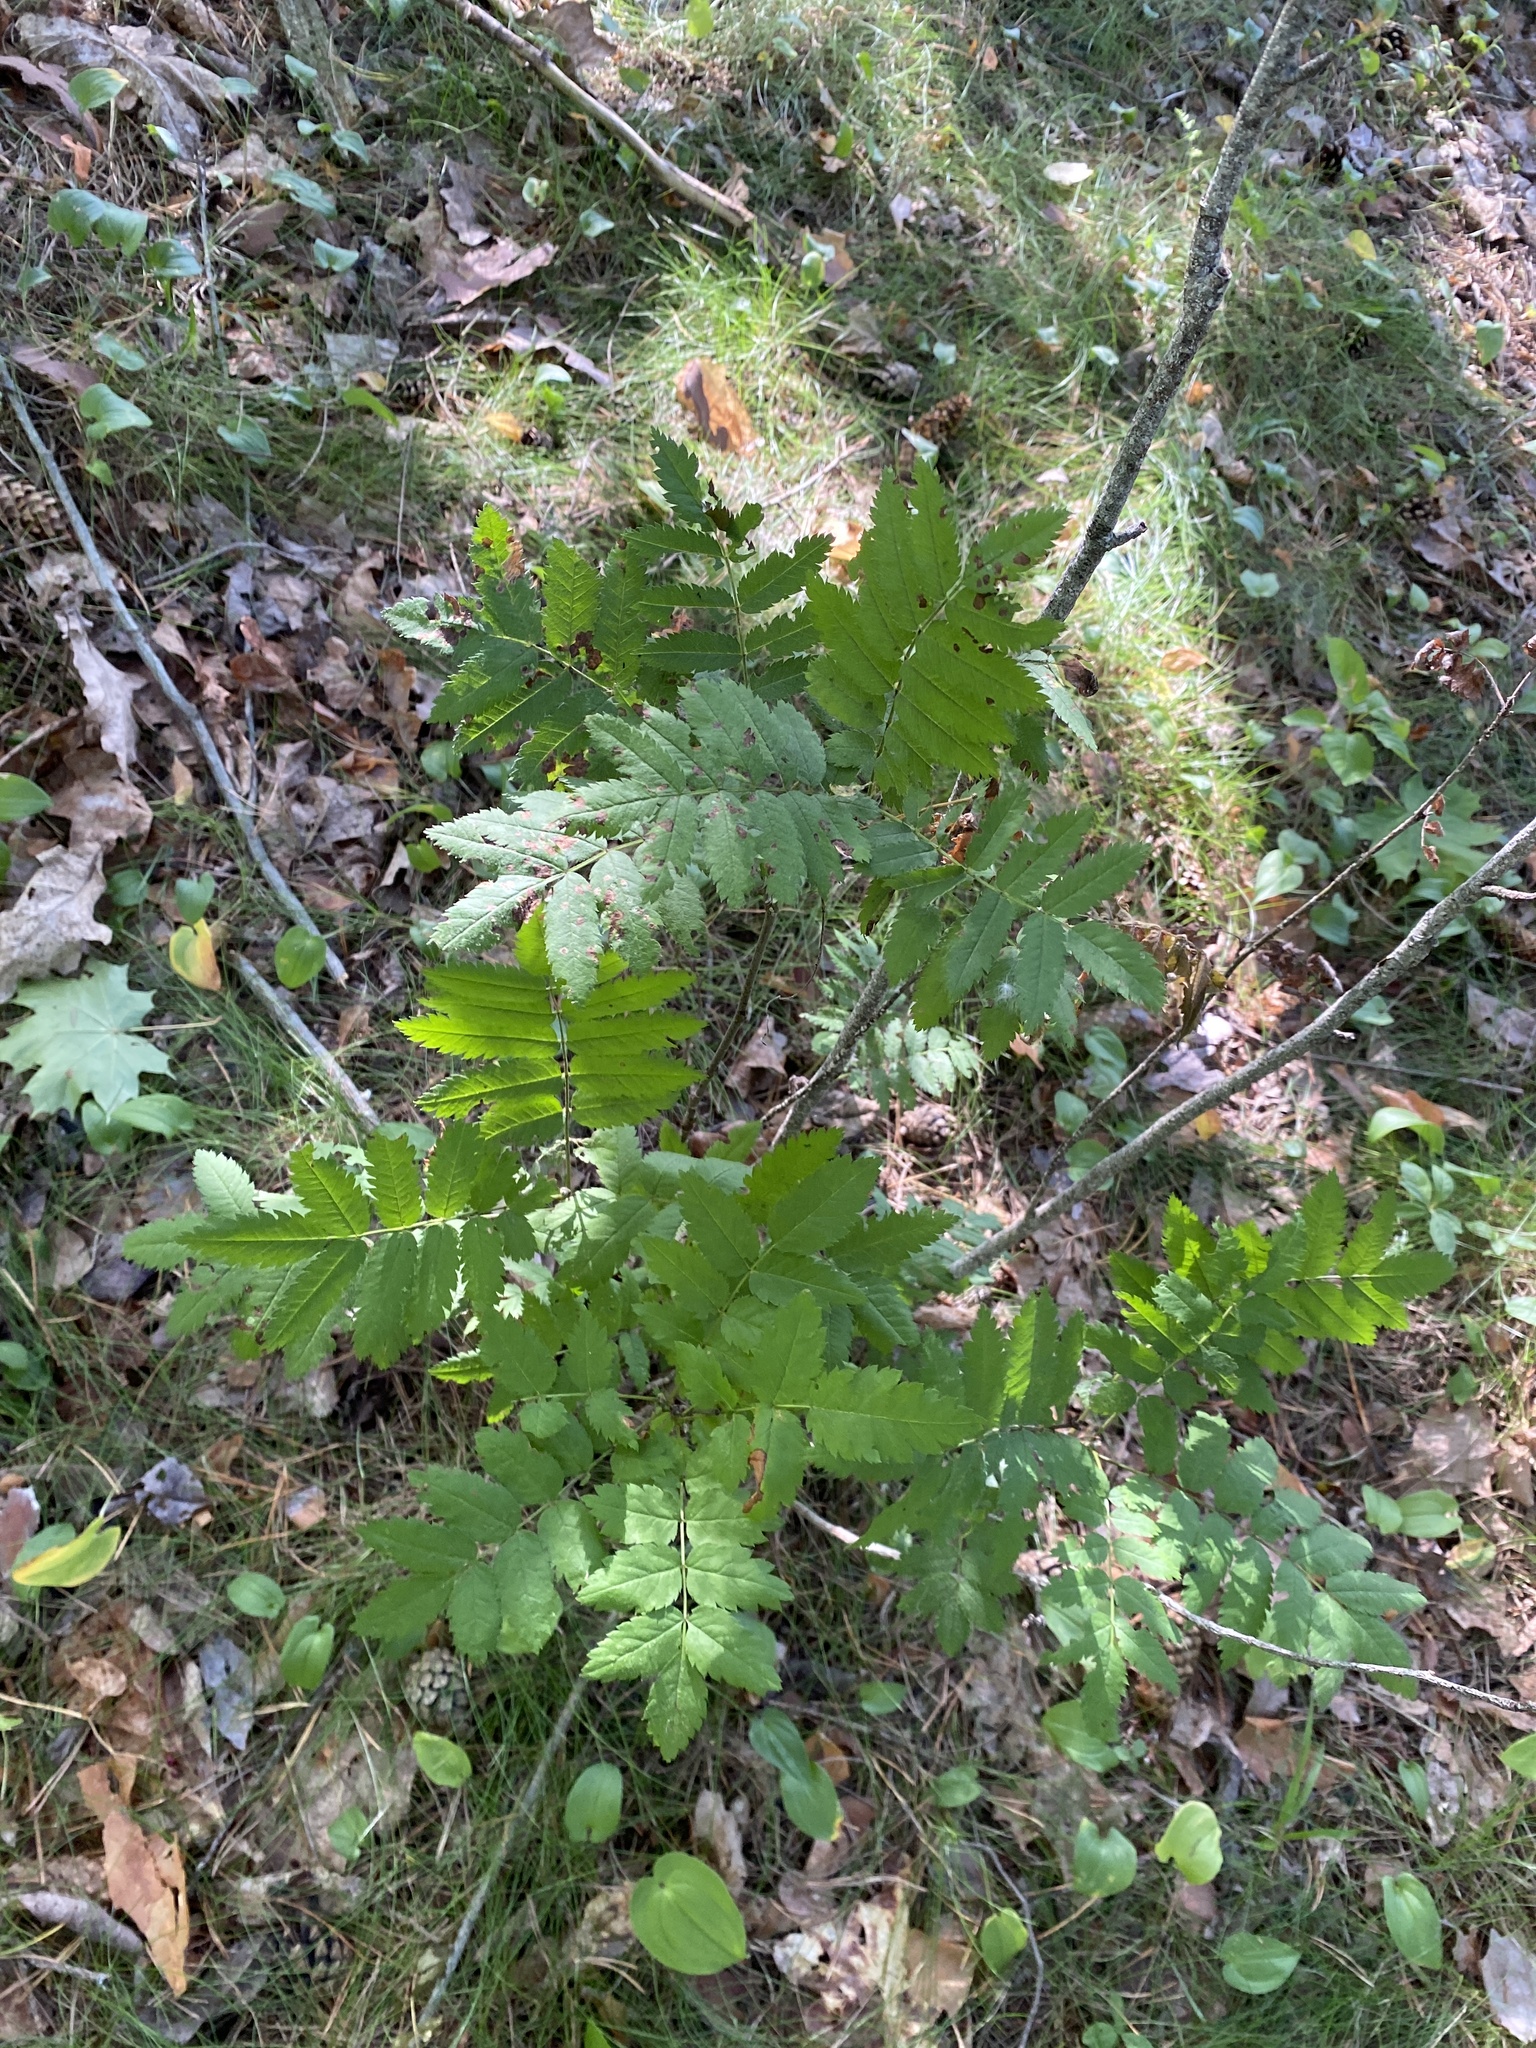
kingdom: Plantae
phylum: Tracheophyta
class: Magnoliopsida
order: Rosales
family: Rosaceae
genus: Sorbus
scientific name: Sorbus aucuparia
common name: Rowan
